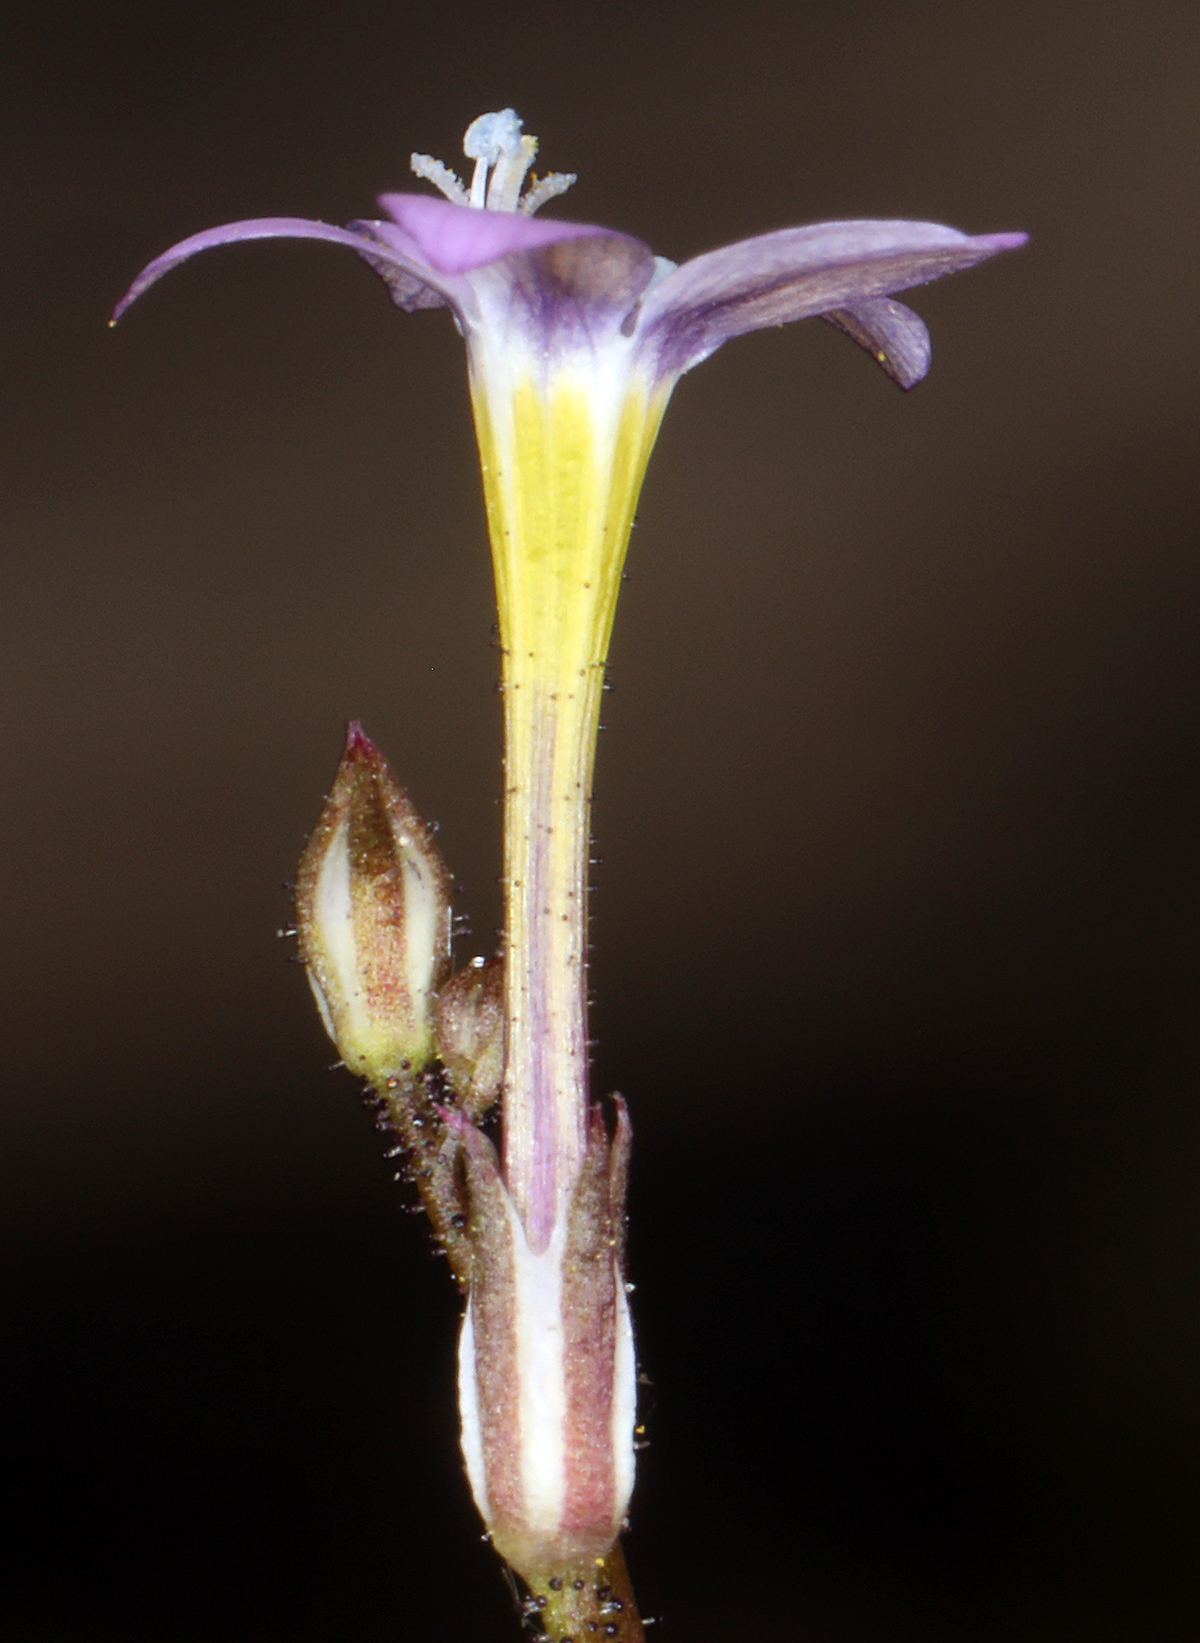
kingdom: Plantae
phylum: Tracheophyta
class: Magnoliopsida
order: Ericales
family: Polemoniaceae
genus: Gilia
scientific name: Gilia ophthalmoides
